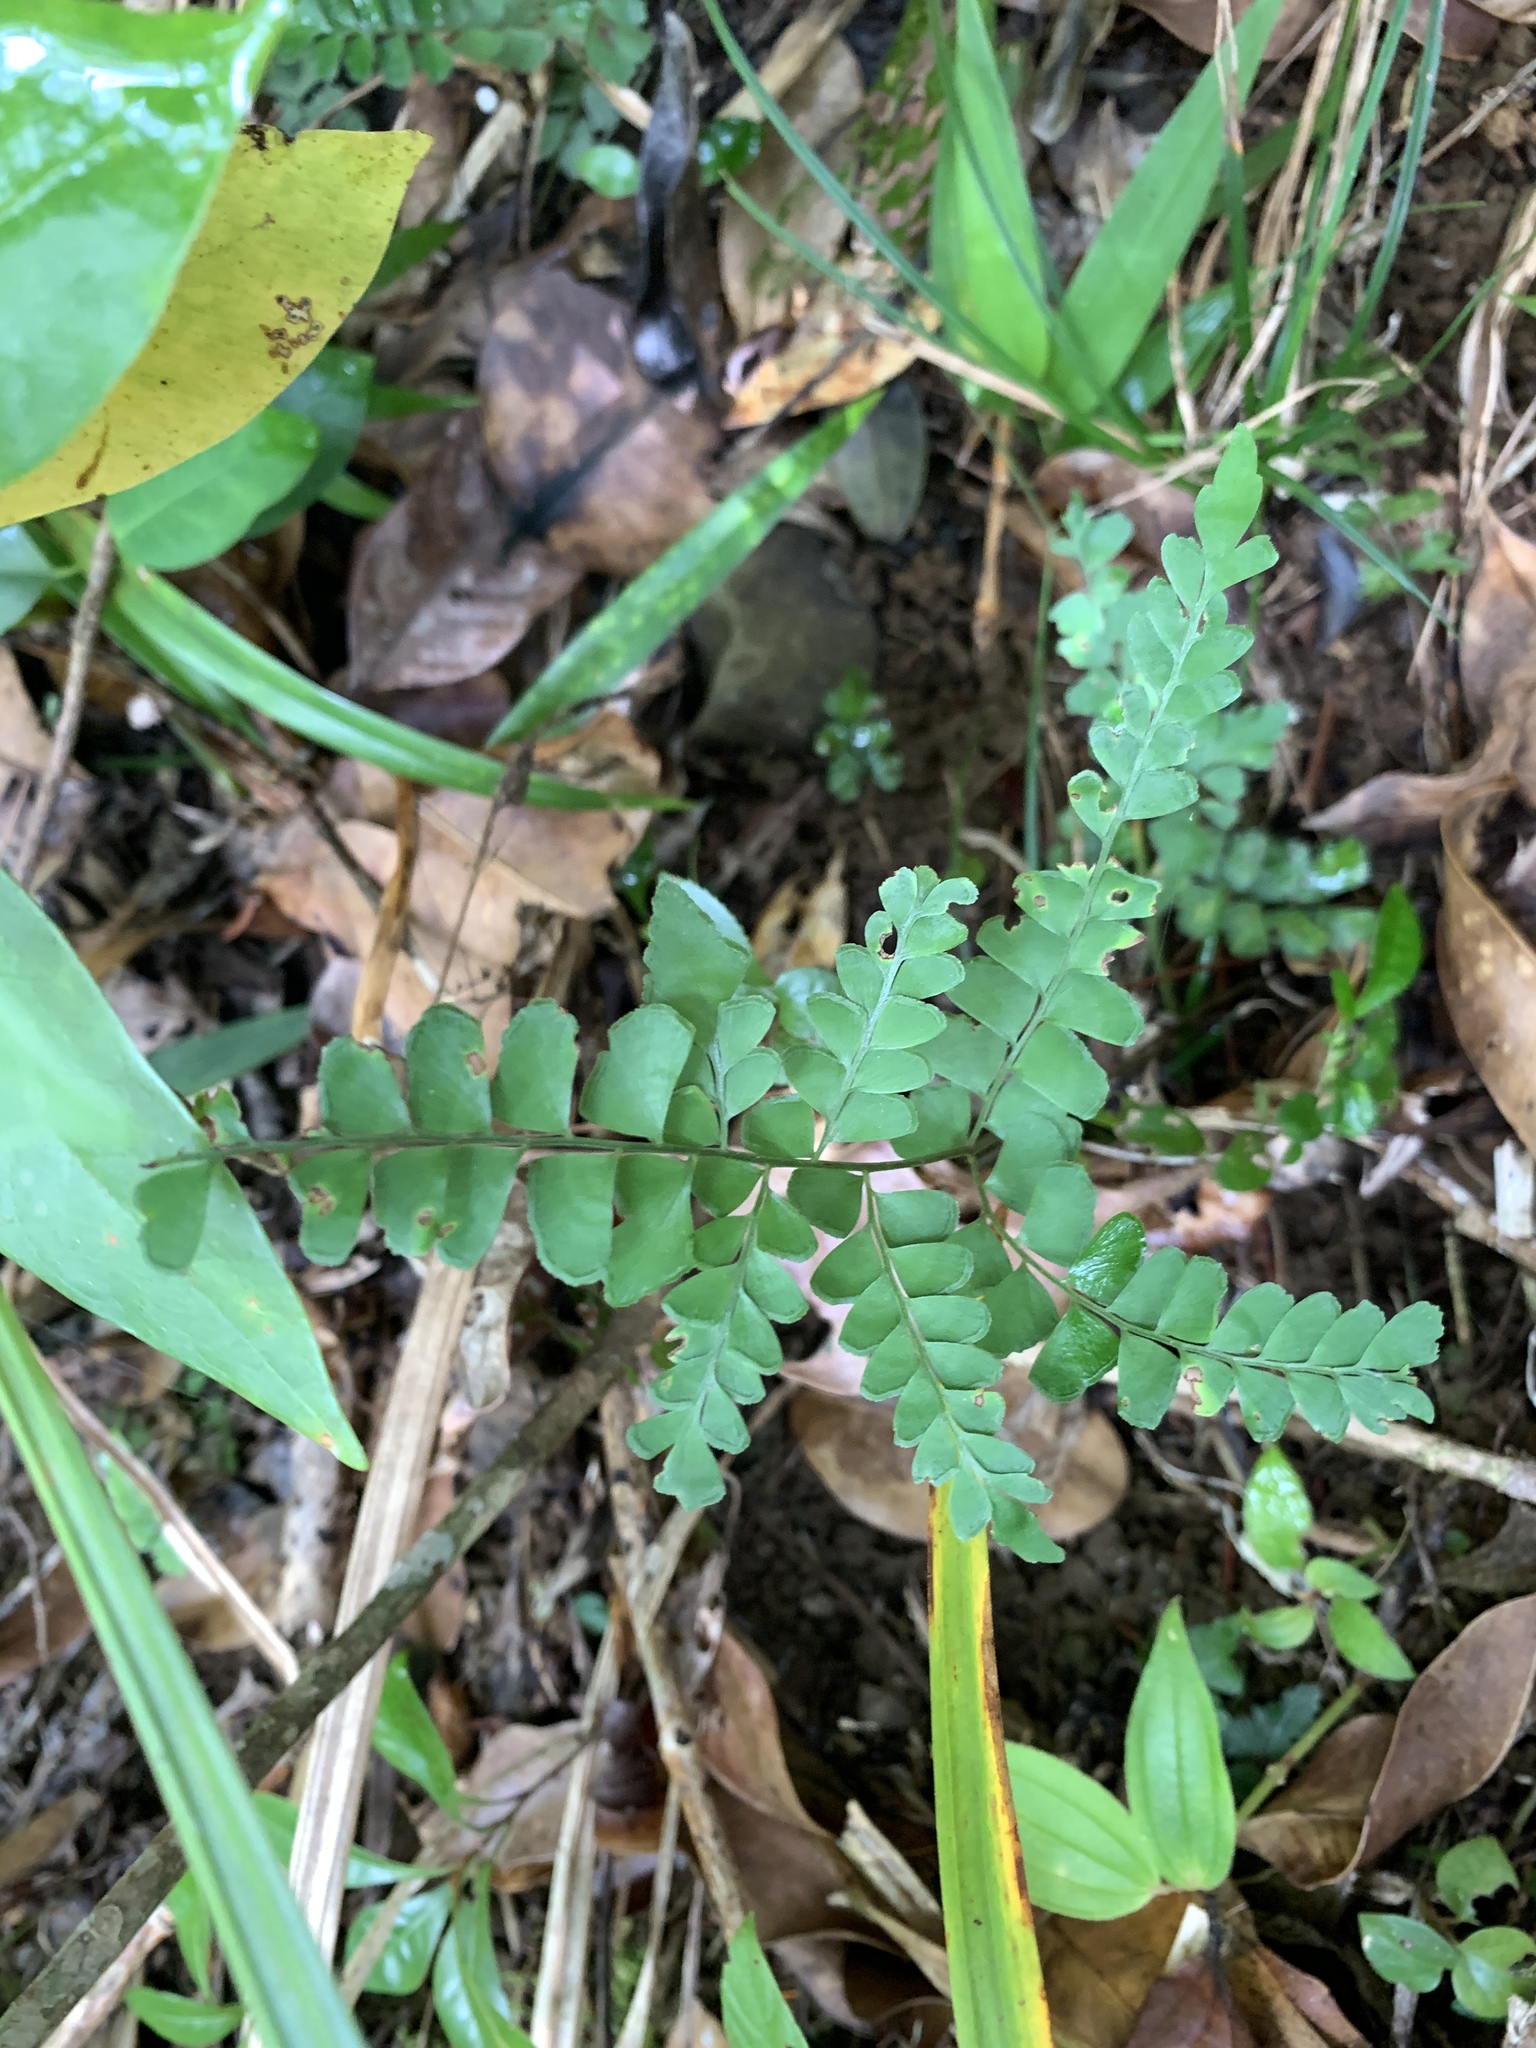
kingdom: Plantae
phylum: Tracheophyta
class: Polypodiopsida
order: Polypodiales
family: Lindsaeaceae
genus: Lindsaea
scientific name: Lindsaea javanensis
